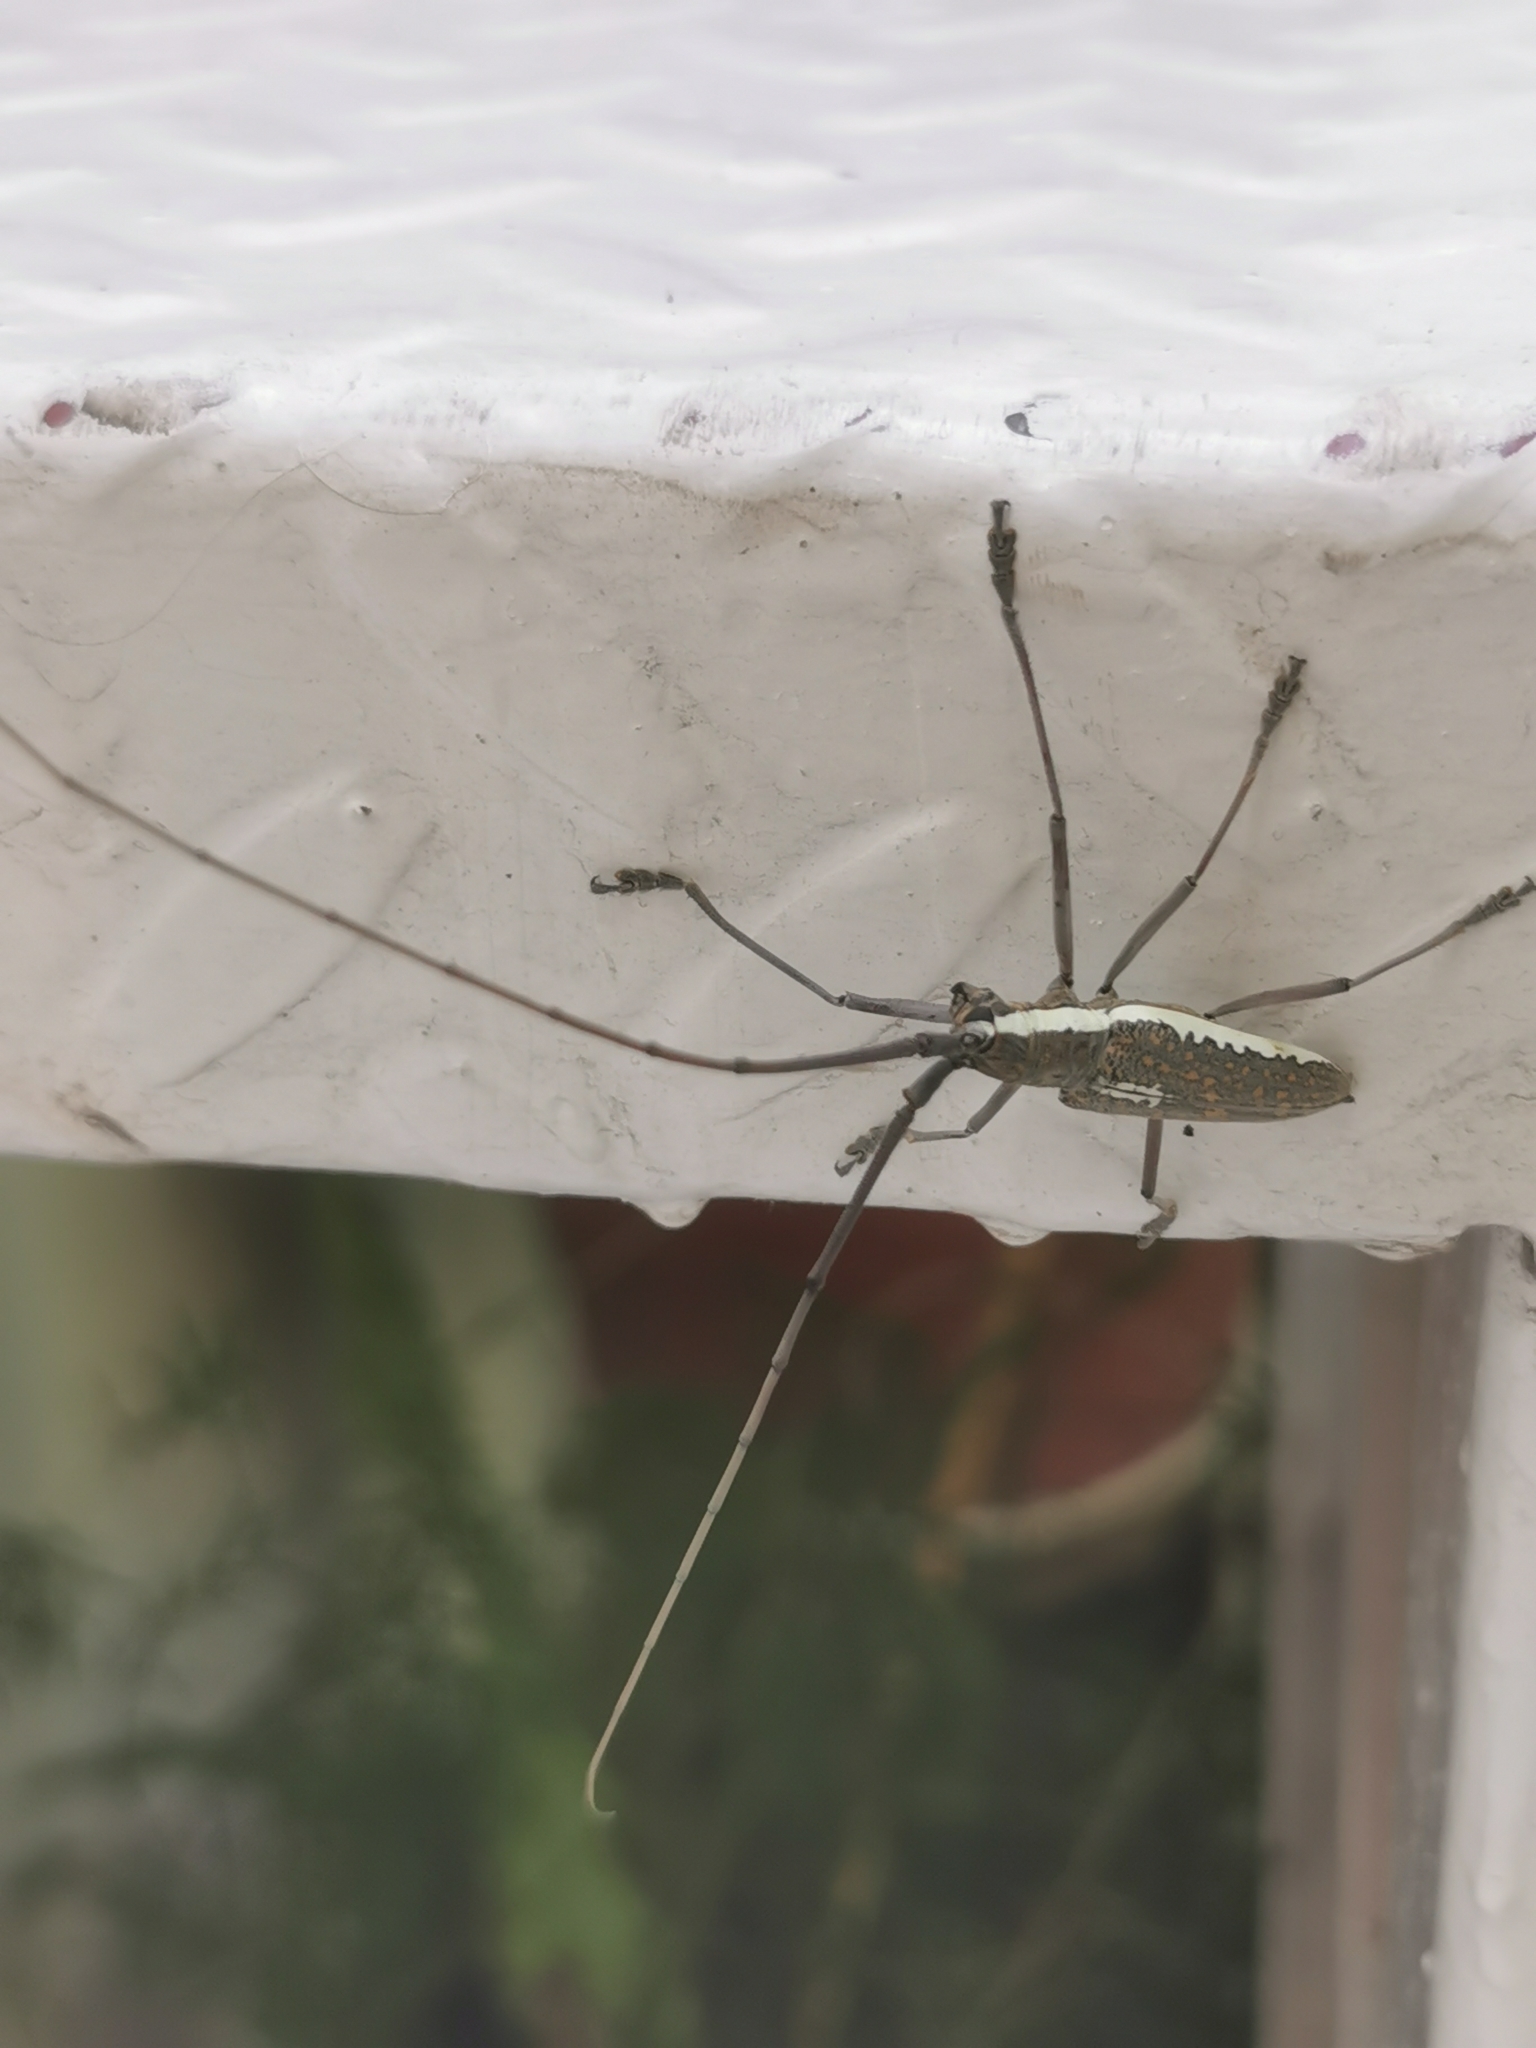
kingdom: Animalia
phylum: Arthropoda
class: Insecta
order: Coleoptera
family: Cerambycidae
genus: Neoptychodes
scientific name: Neoptychodes trilineatus
